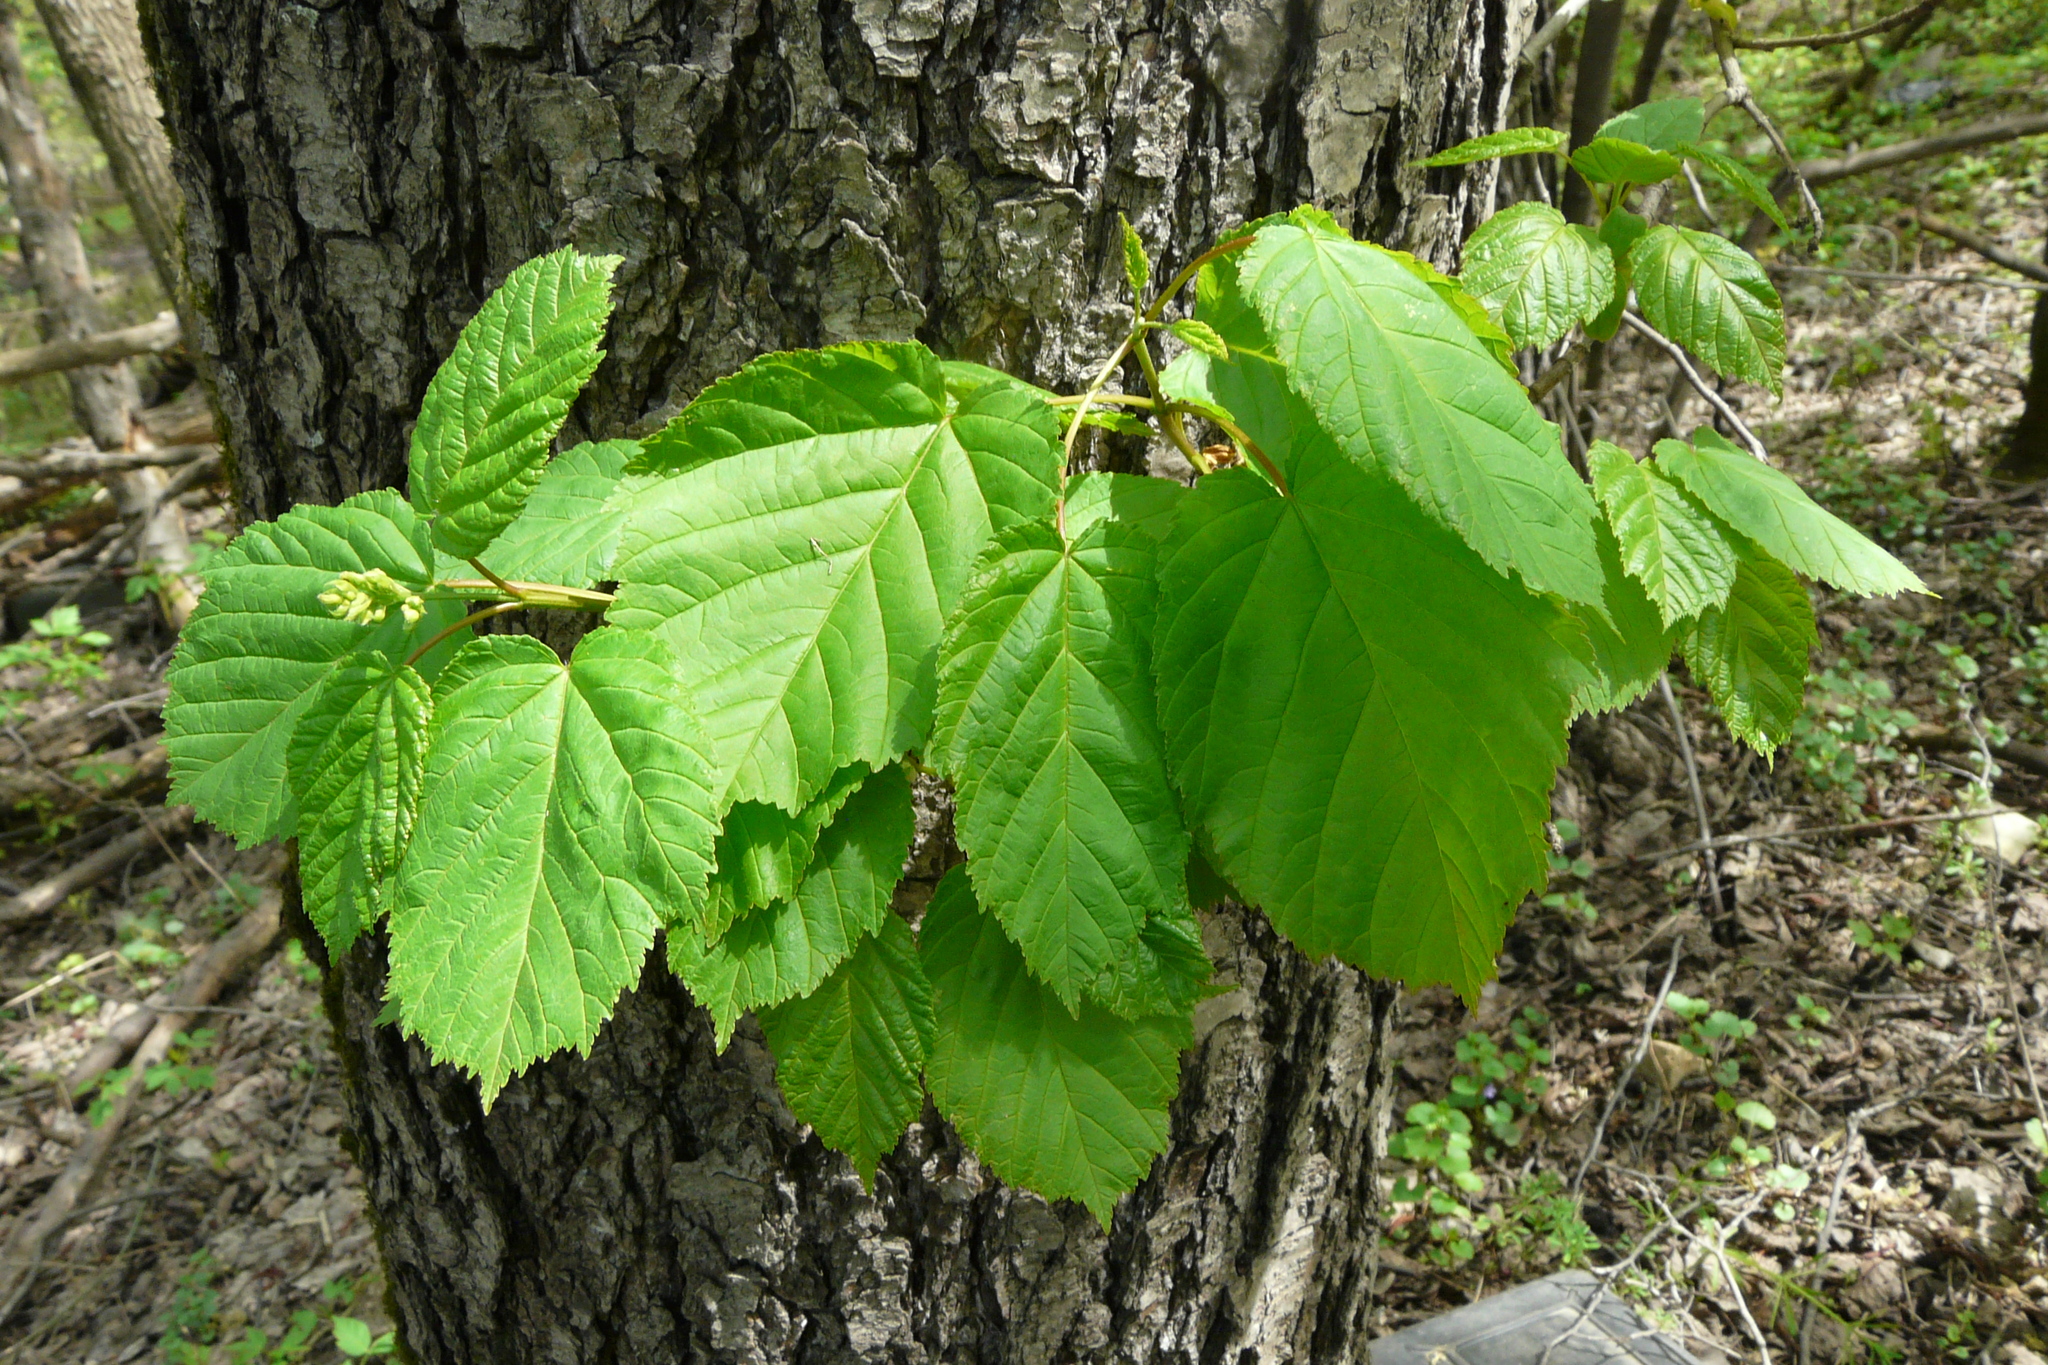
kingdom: Plantae
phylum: Tracheophyta
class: Magnoliopsida
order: Sapindales
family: Sapindaceae
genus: Acer
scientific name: Acer tataricum
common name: Tartar maple
